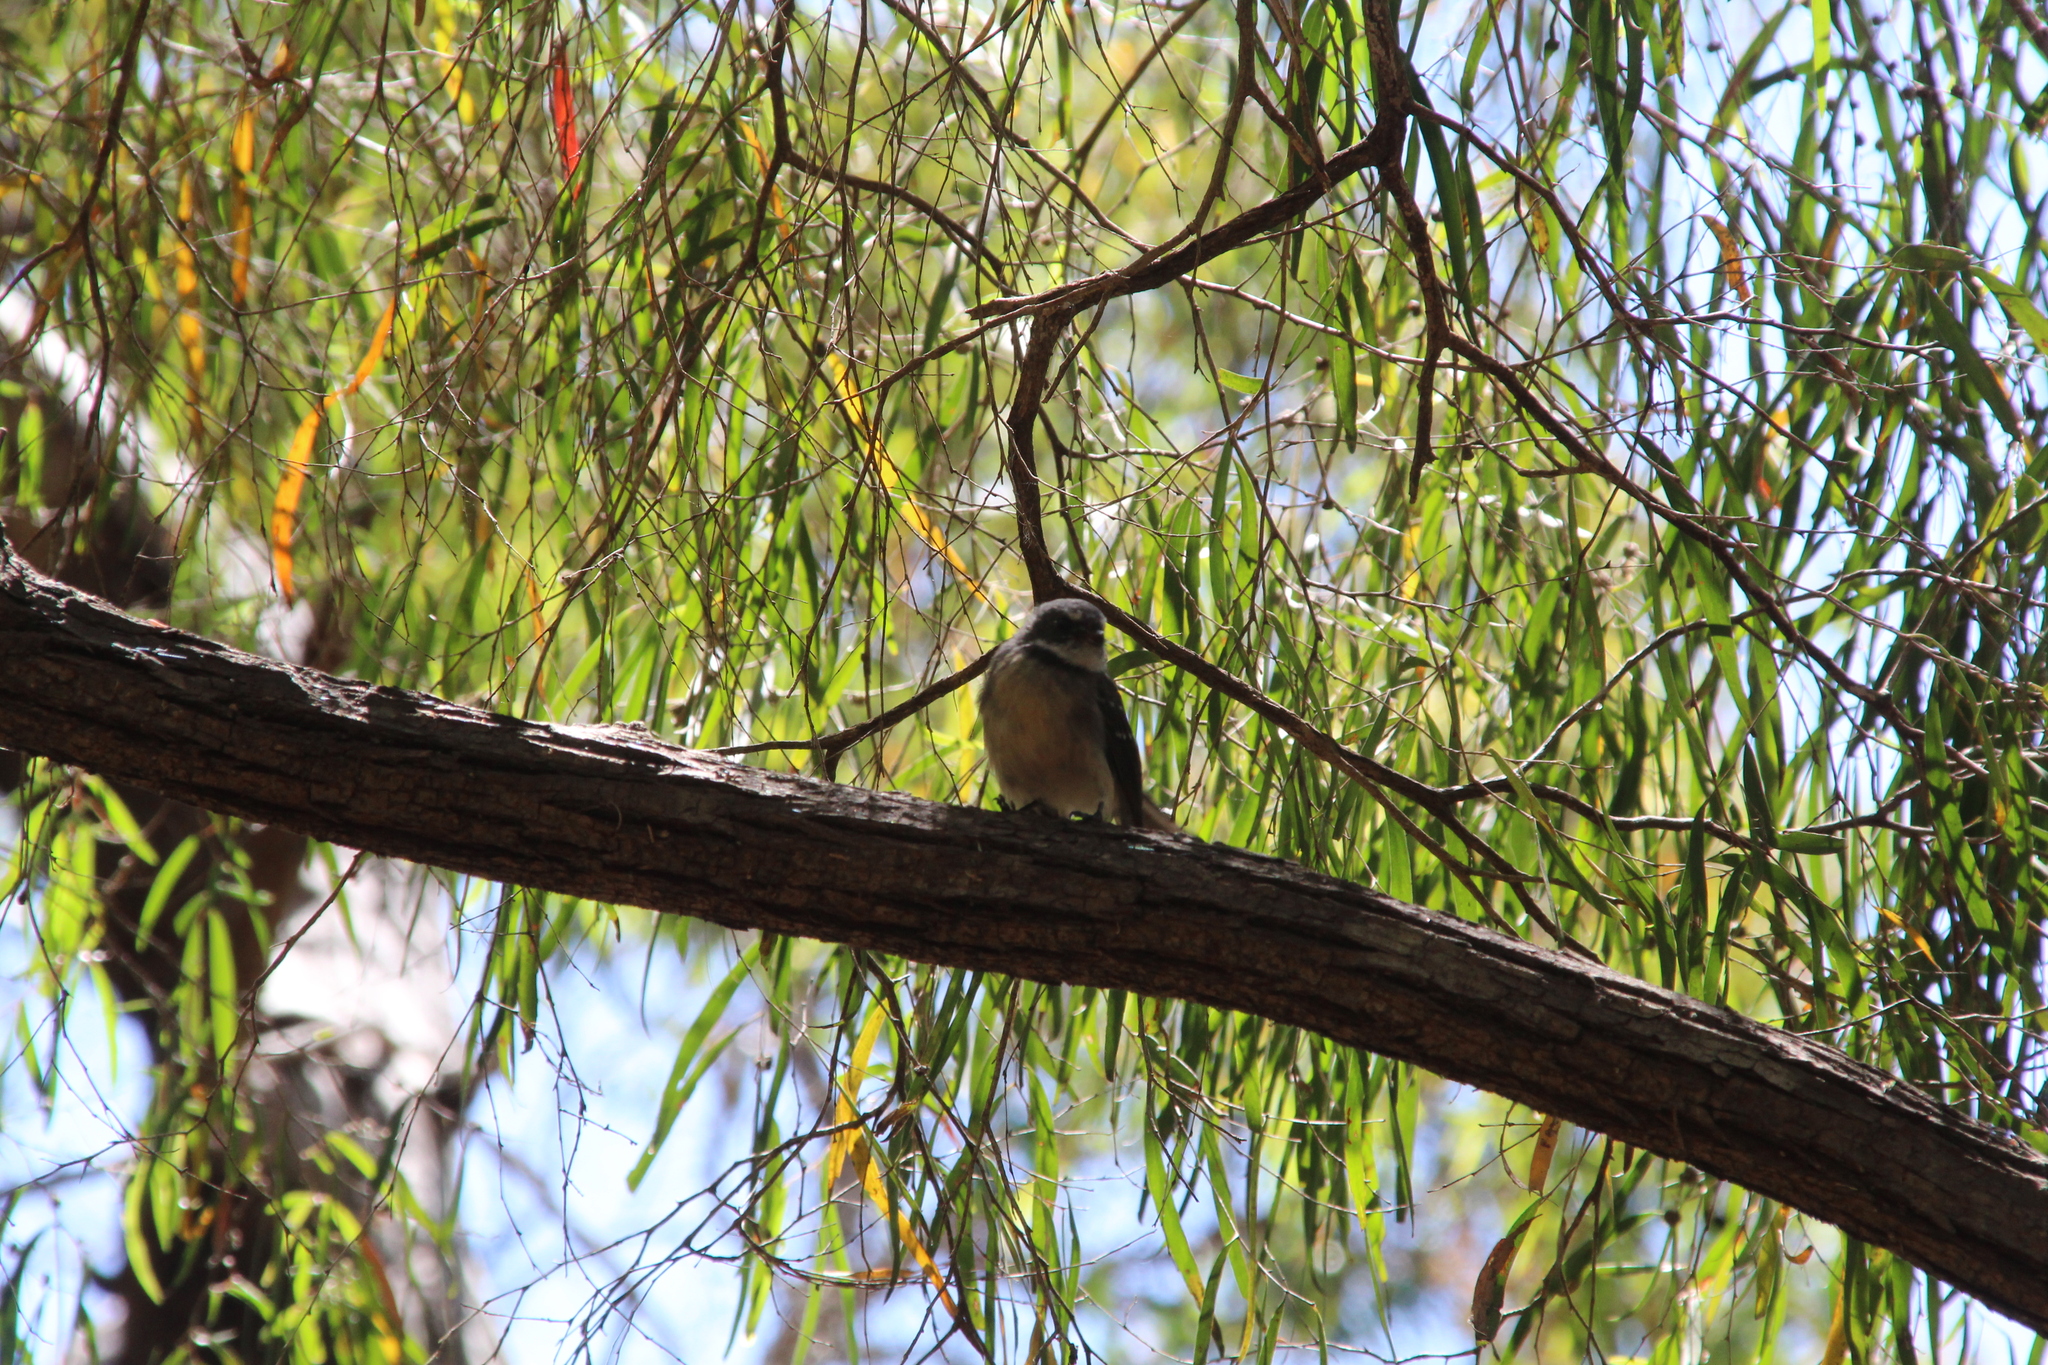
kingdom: Animalia
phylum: Chordata
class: Aves
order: Passeriformes
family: Rhipiduridae
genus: Rhipidura
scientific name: Rhipidura albiscapa
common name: Grey fantail
